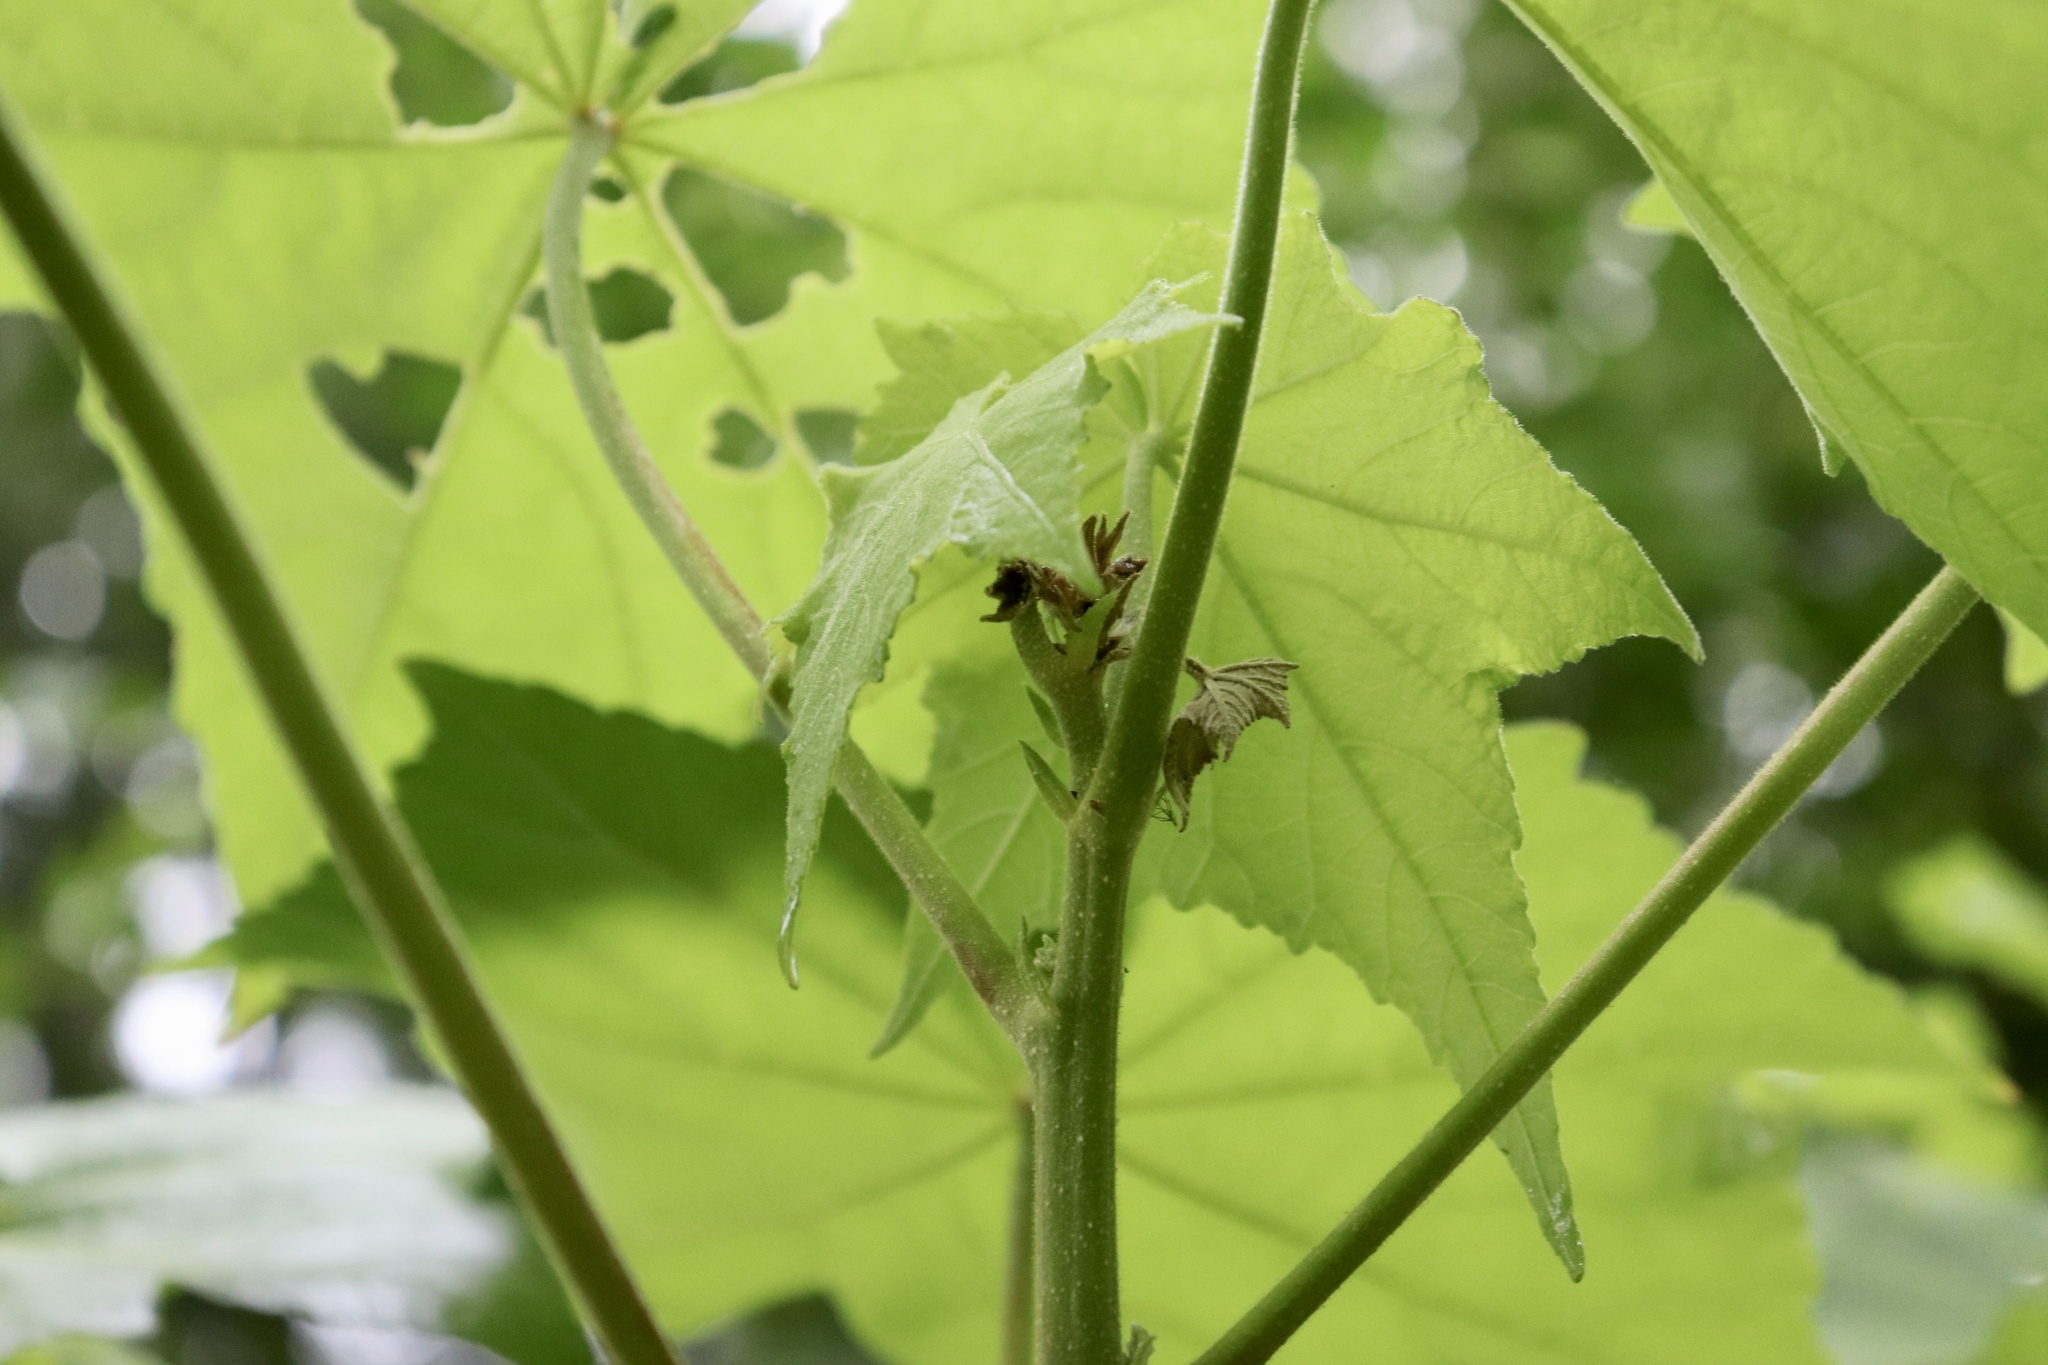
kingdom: Plantae
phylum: Tracheophyta
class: Magnoliopsida
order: Malvales
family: Malvaceae
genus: Hibiscus
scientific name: Hibiscus mutabilis
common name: Dixie rosemallow
